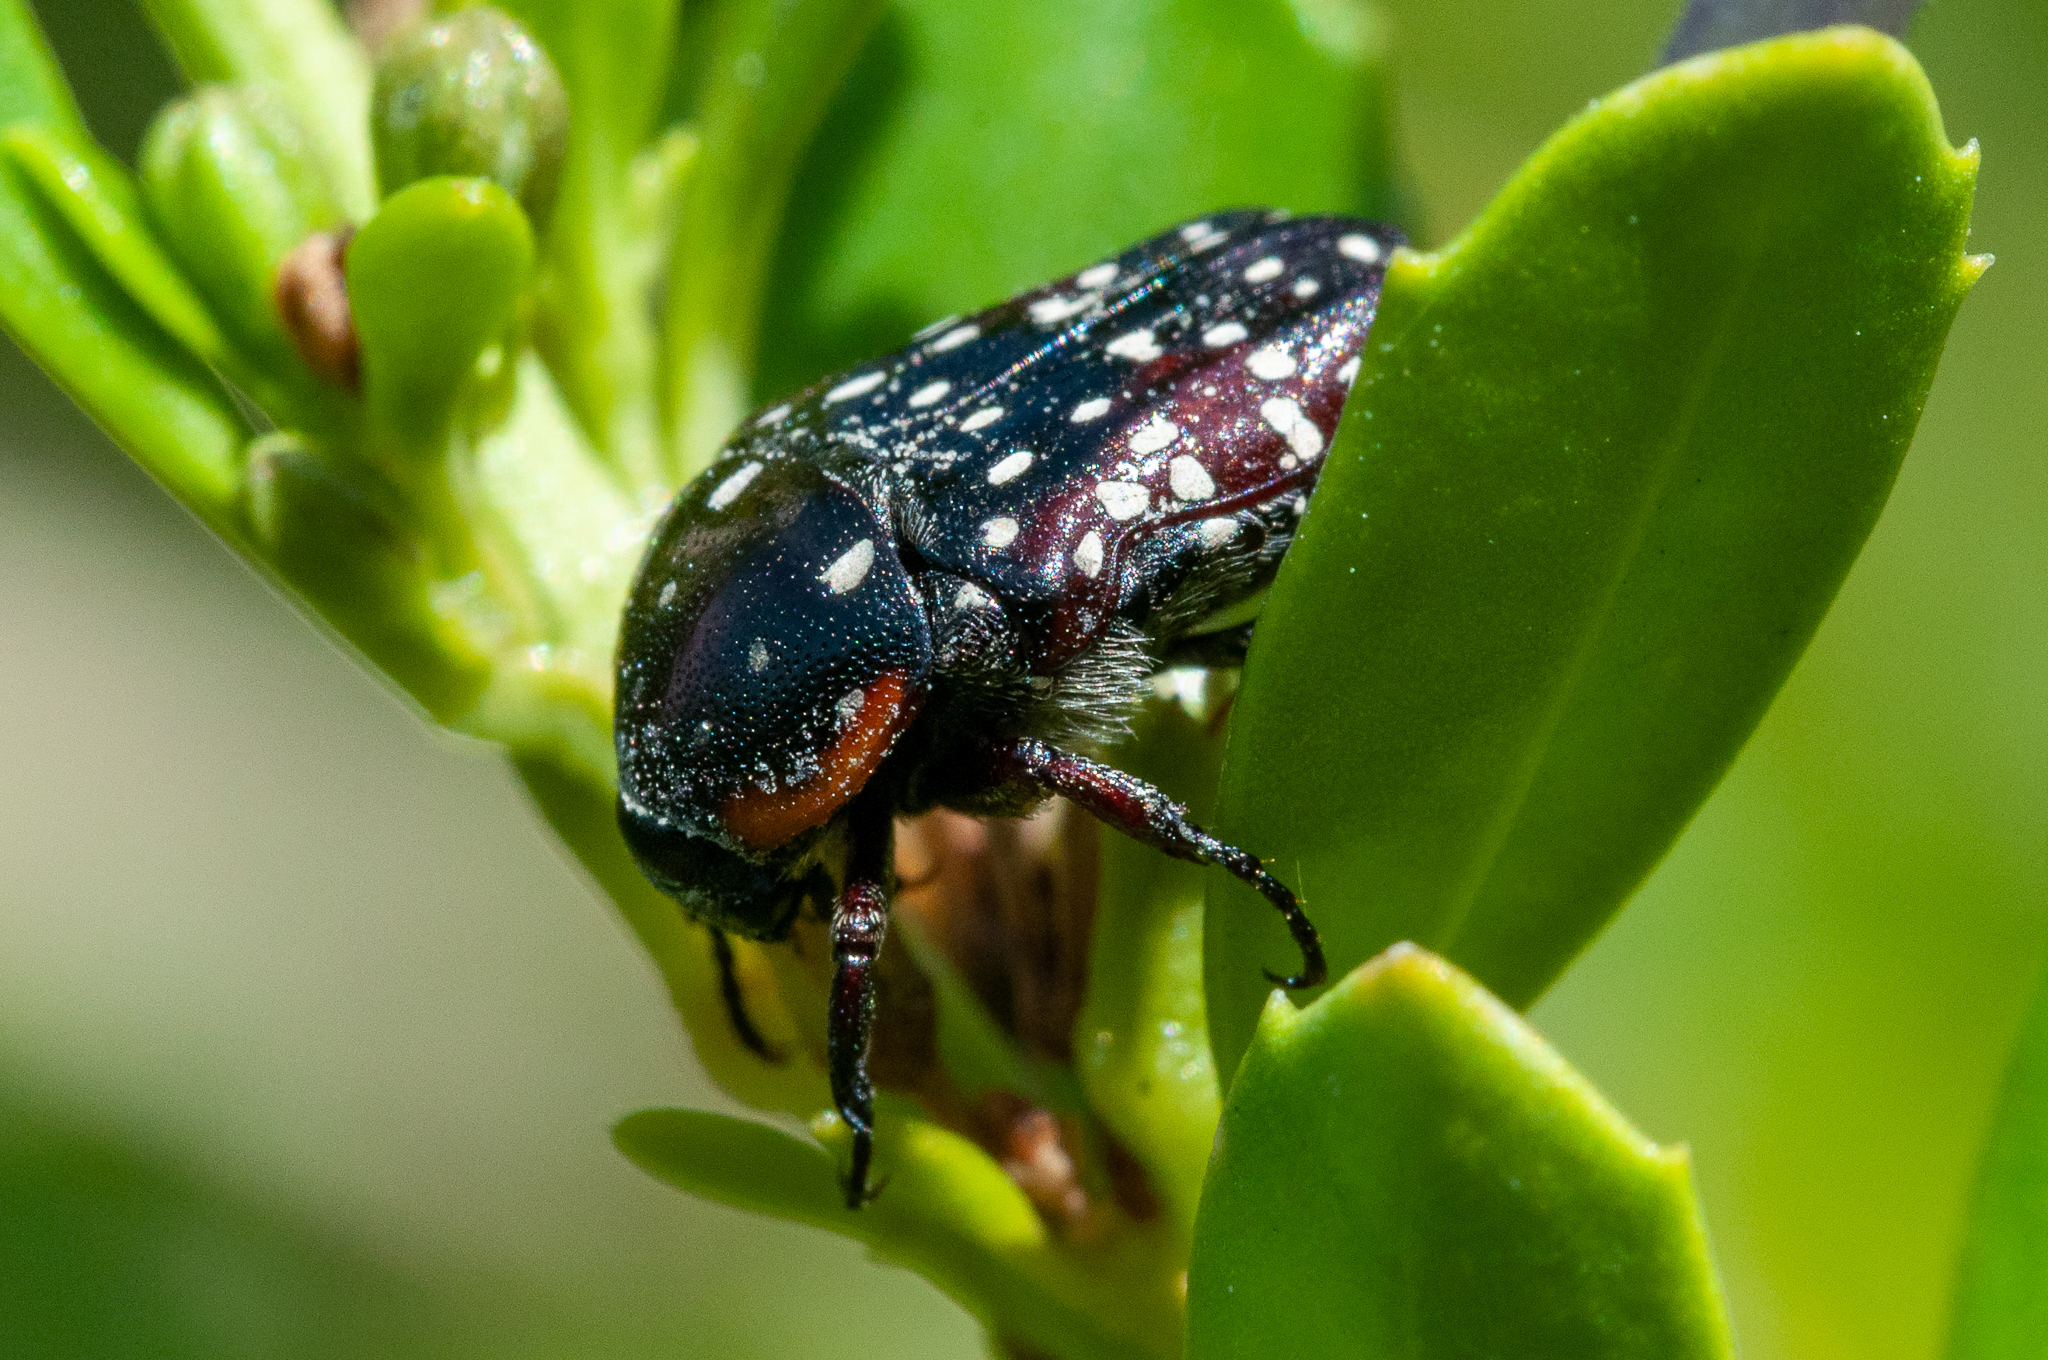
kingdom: Animalia
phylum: Arthropoda
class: Insecta
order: Coleoptera
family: Scarabaeidae
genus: Oxythyrea
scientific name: Oxythyrea
